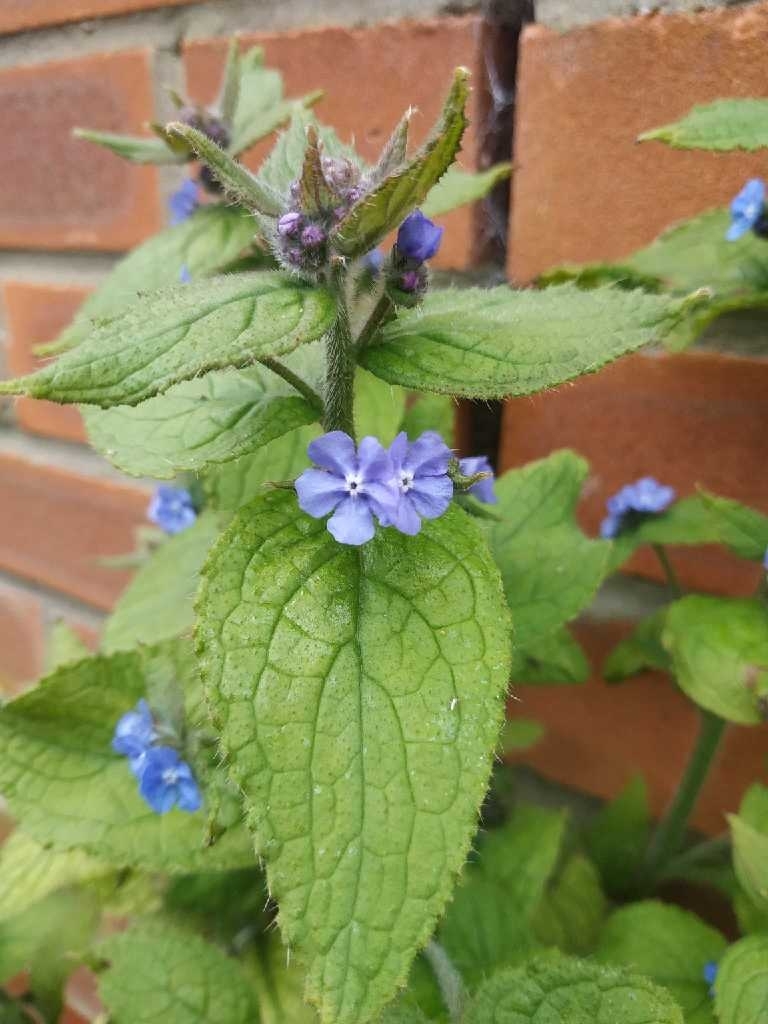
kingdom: Plantae
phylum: Tracheophyta
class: Magnoliopsida
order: Boraginales
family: Boraginaceae
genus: Pentaglottis
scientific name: Pentaglottis sempervirens
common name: Green alkanet
